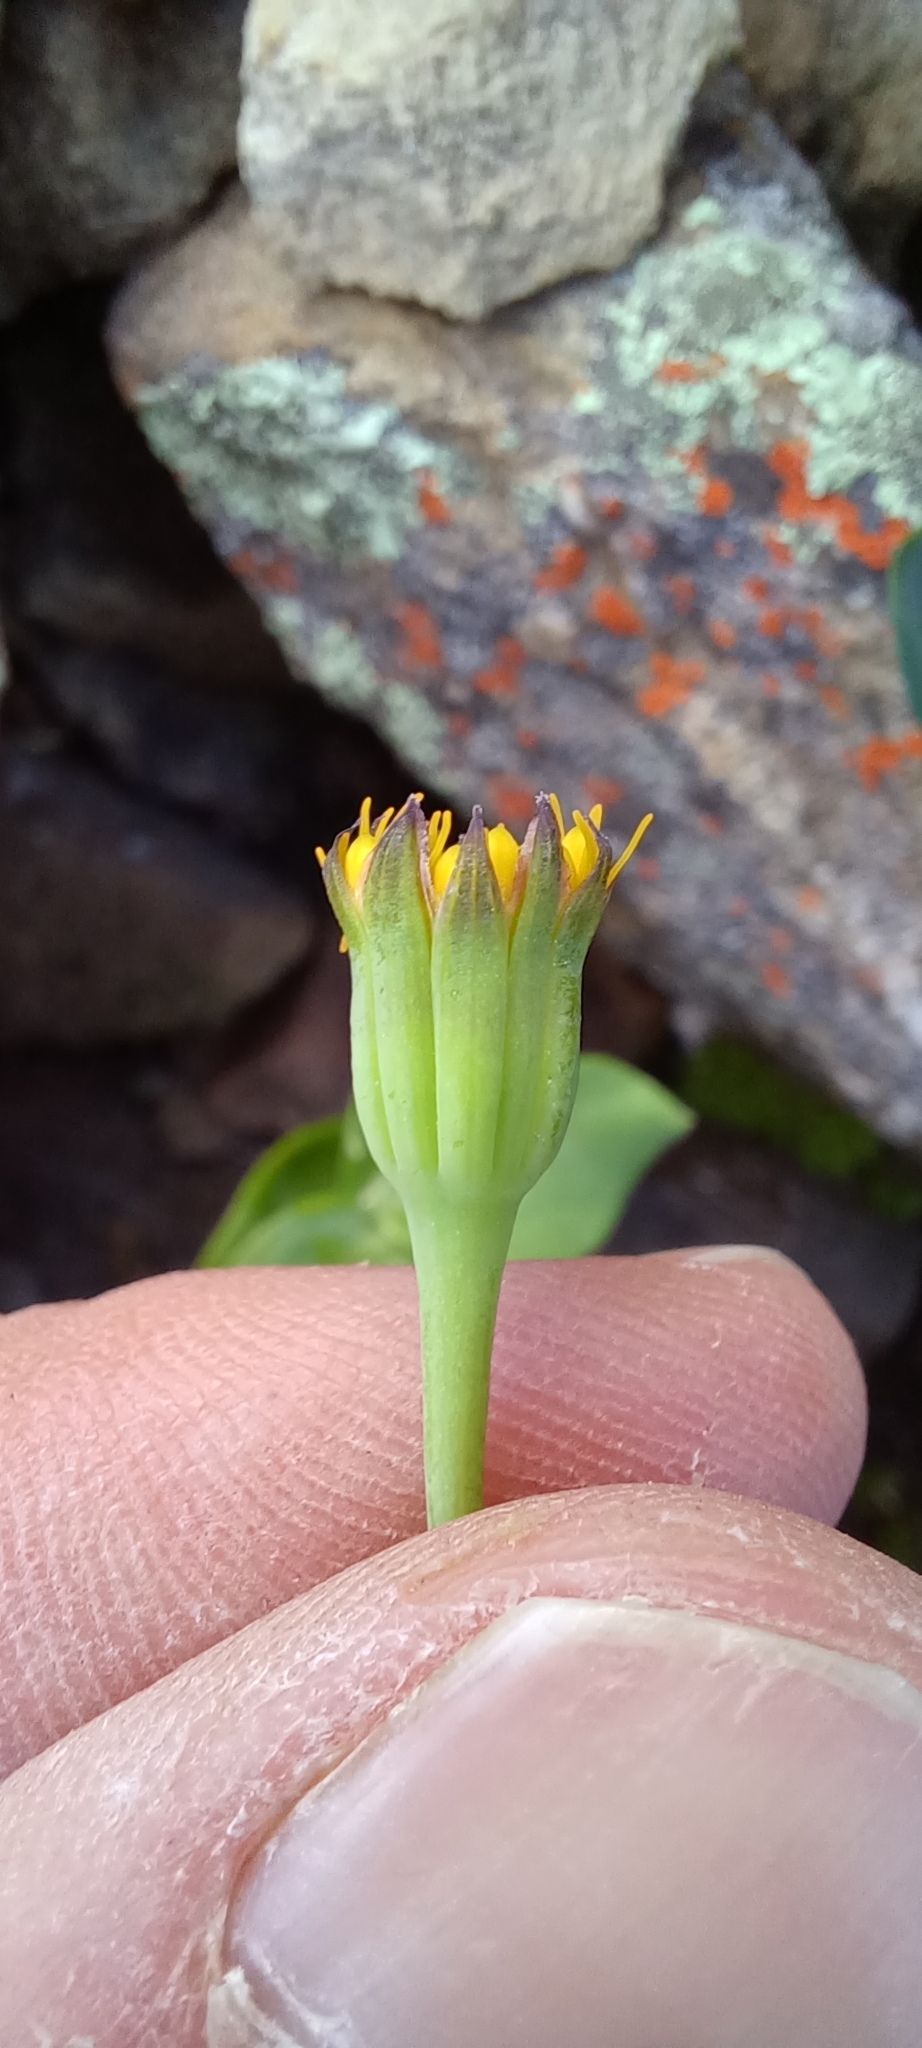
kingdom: Plantae
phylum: Tracheophyta
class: Magnoliopsida
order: Asterales
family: Asteraceae
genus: Othonna
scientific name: Othonna undulosa
